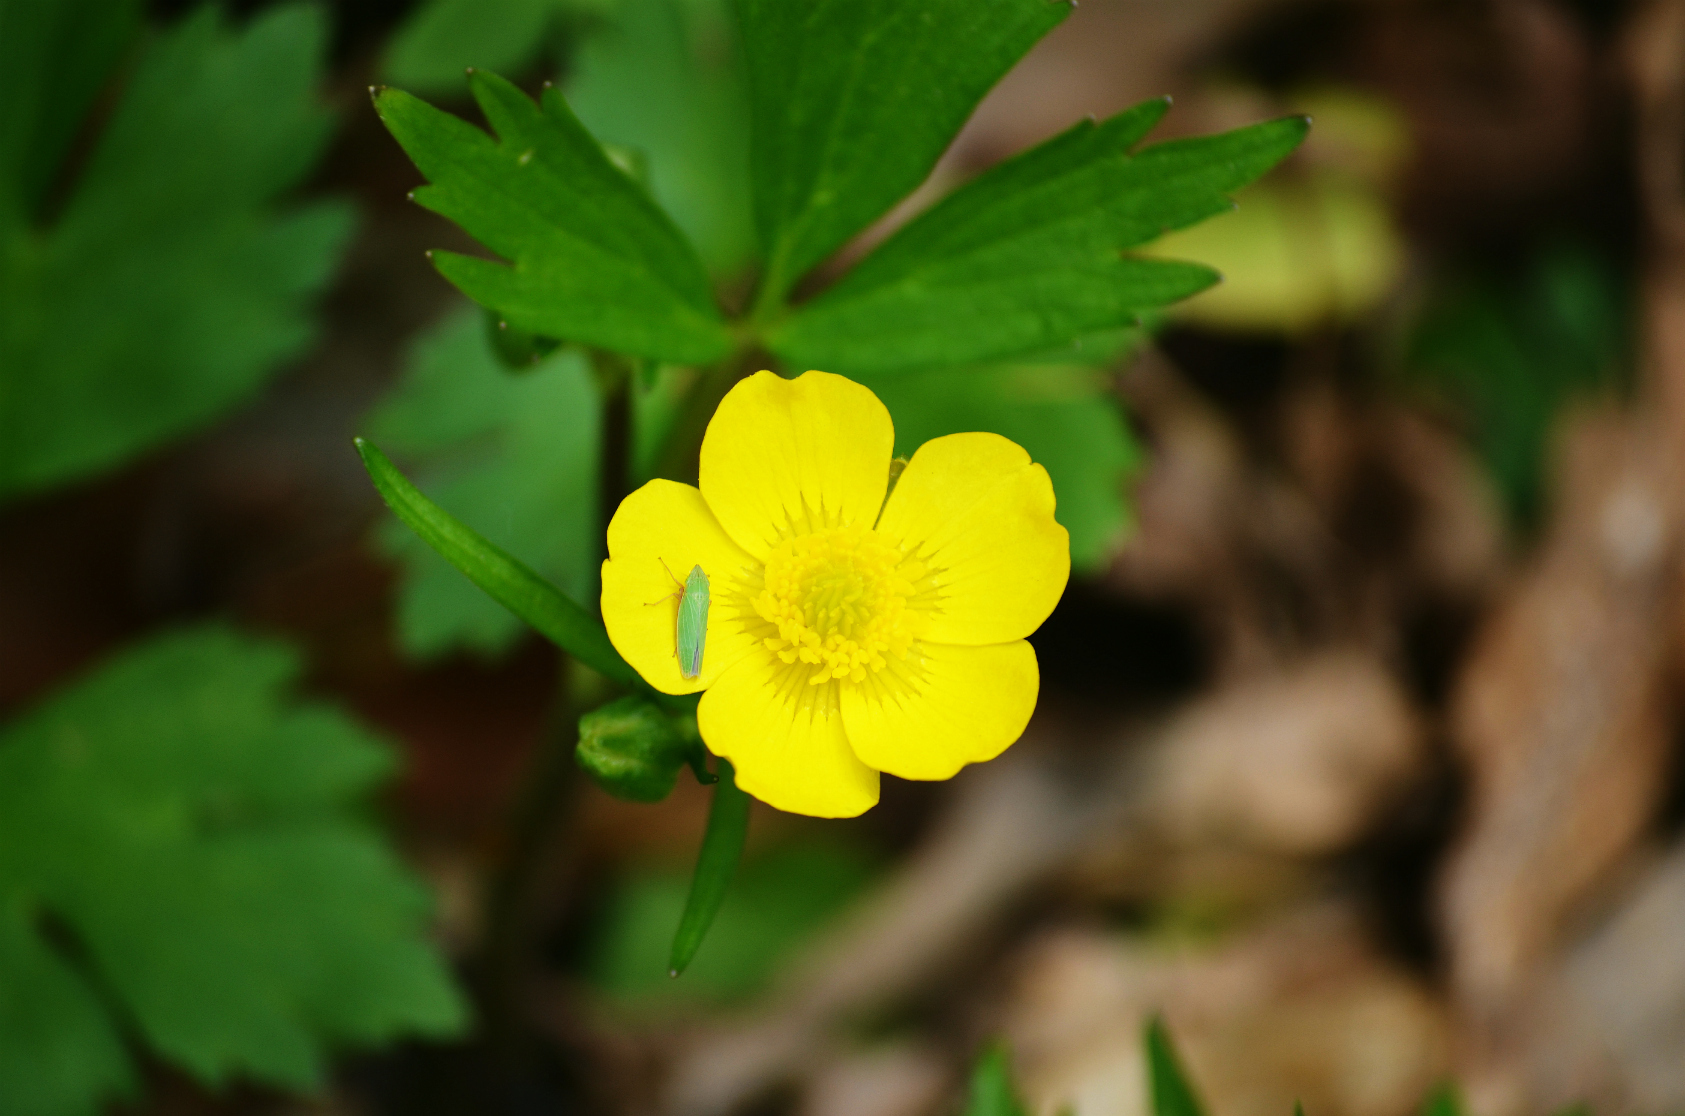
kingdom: Plantae
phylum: Tracheophyta
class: Magnoliopsida
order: Ranunculales
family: Ranunculaceae
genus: Ranunculus
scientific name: Ranunculus hispidus
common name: Bristly buttercup
